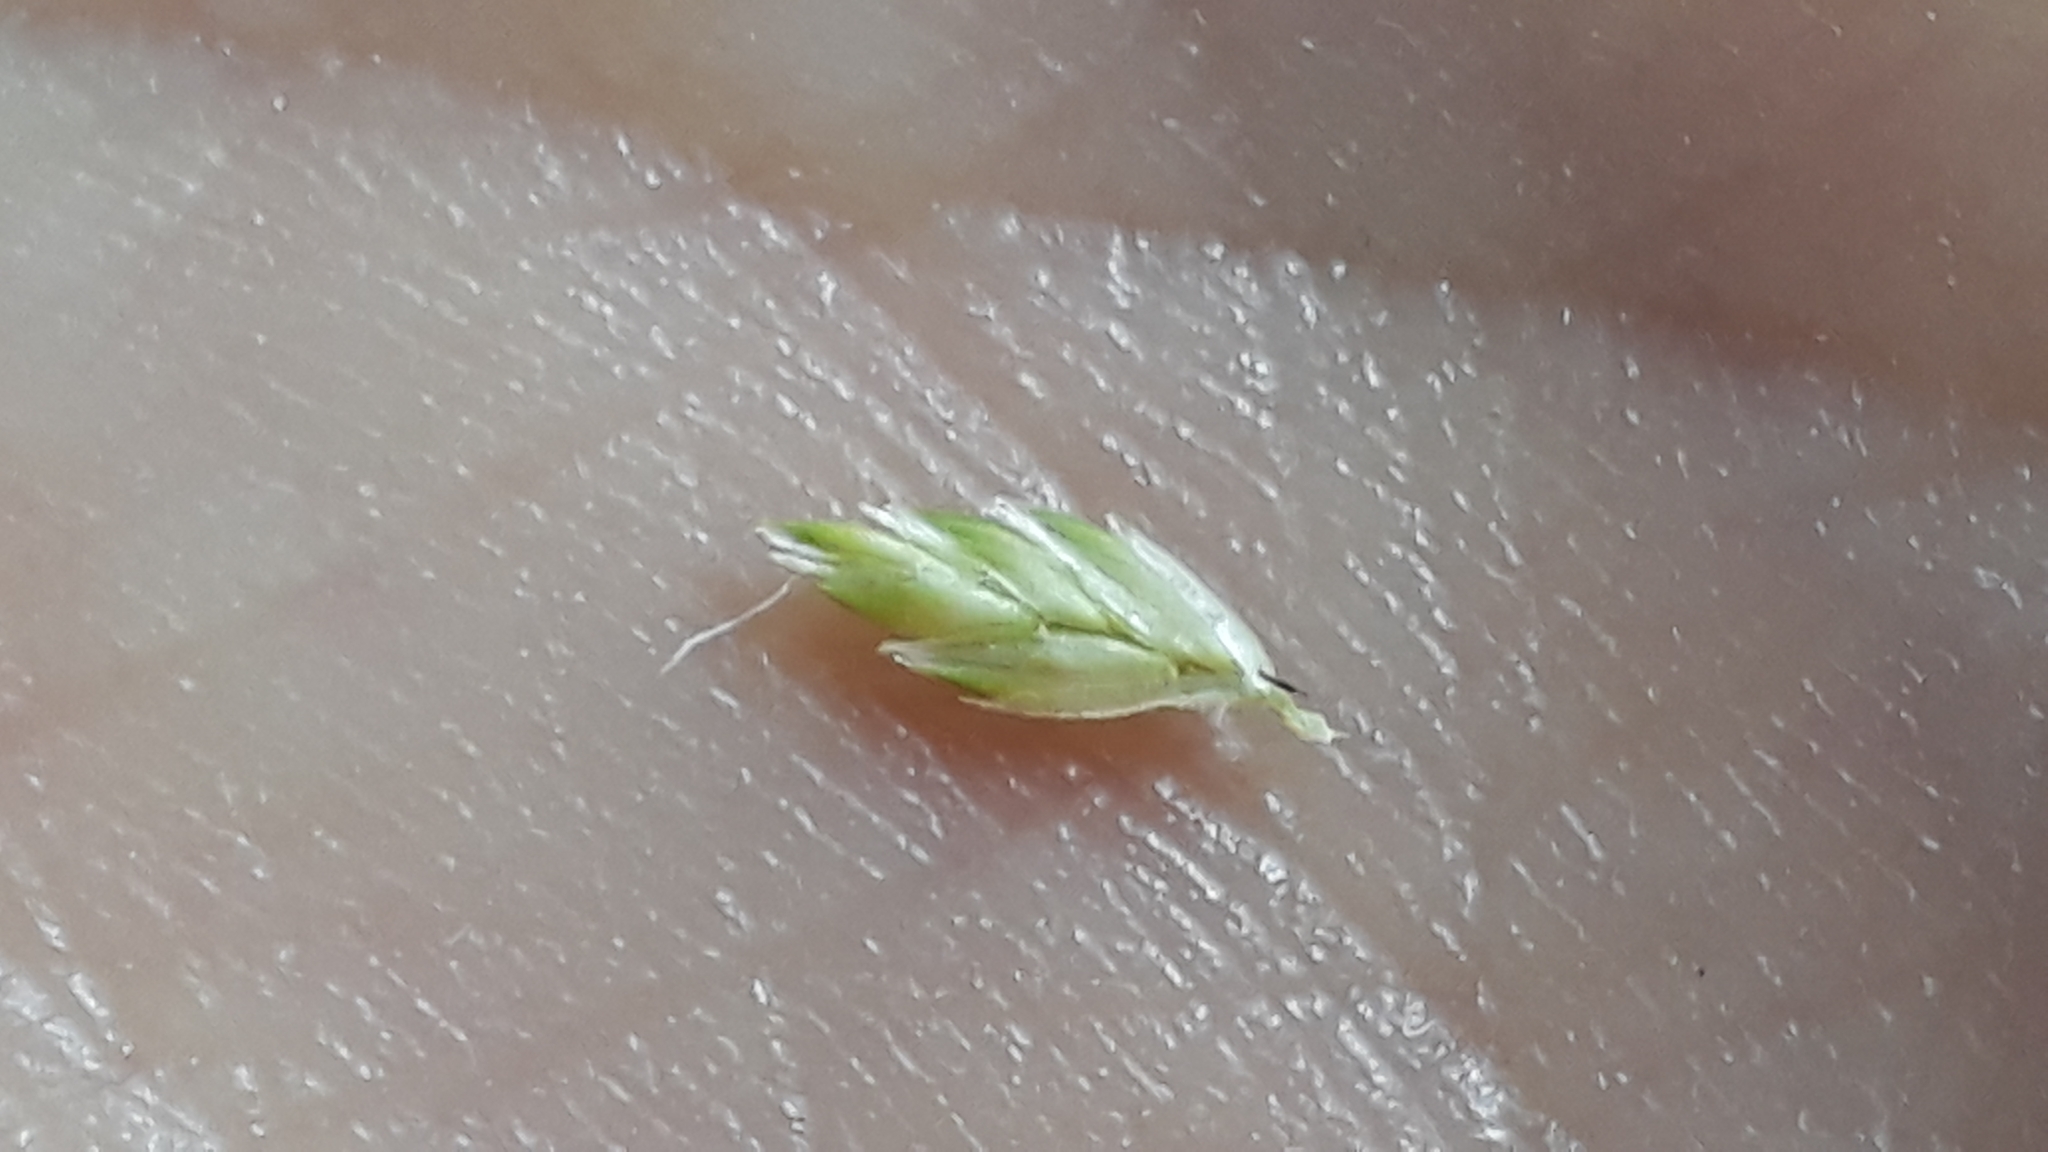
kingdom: Plantae
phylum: Tracheophyta
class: Liliopsida
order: Poales
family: Poaceae
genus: Dactylis
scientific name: Dactylis smithii
